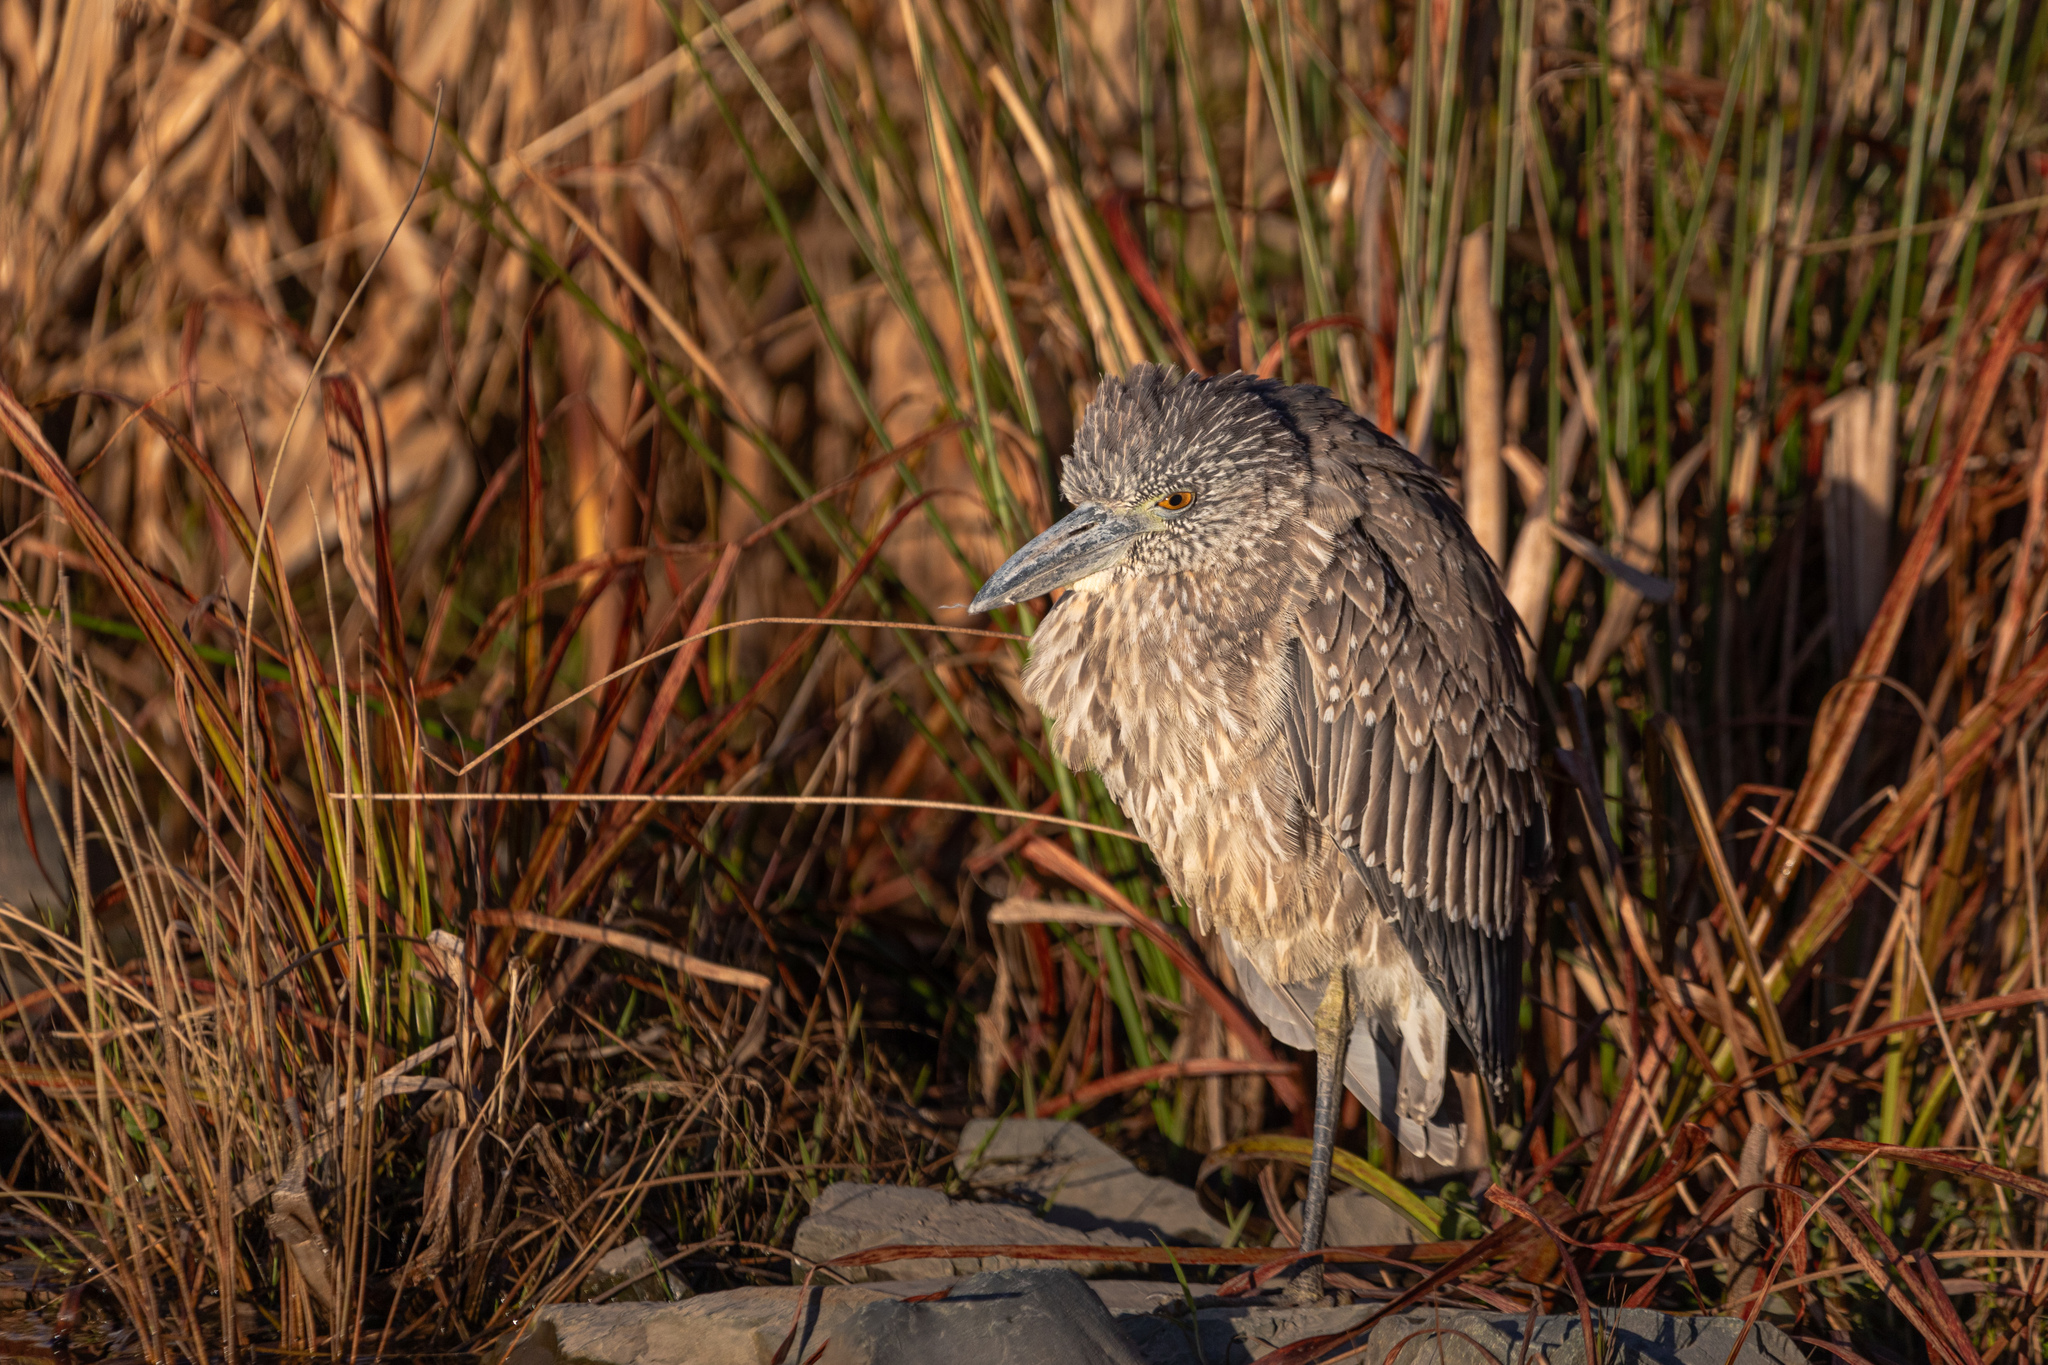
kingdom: Animalia
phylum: Chordata
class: Aves
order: Pelecaniformes
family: Ardeidae
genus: Nyctanassa
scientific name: Nyctanassa violacea
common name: Yellow-crowned night heron
